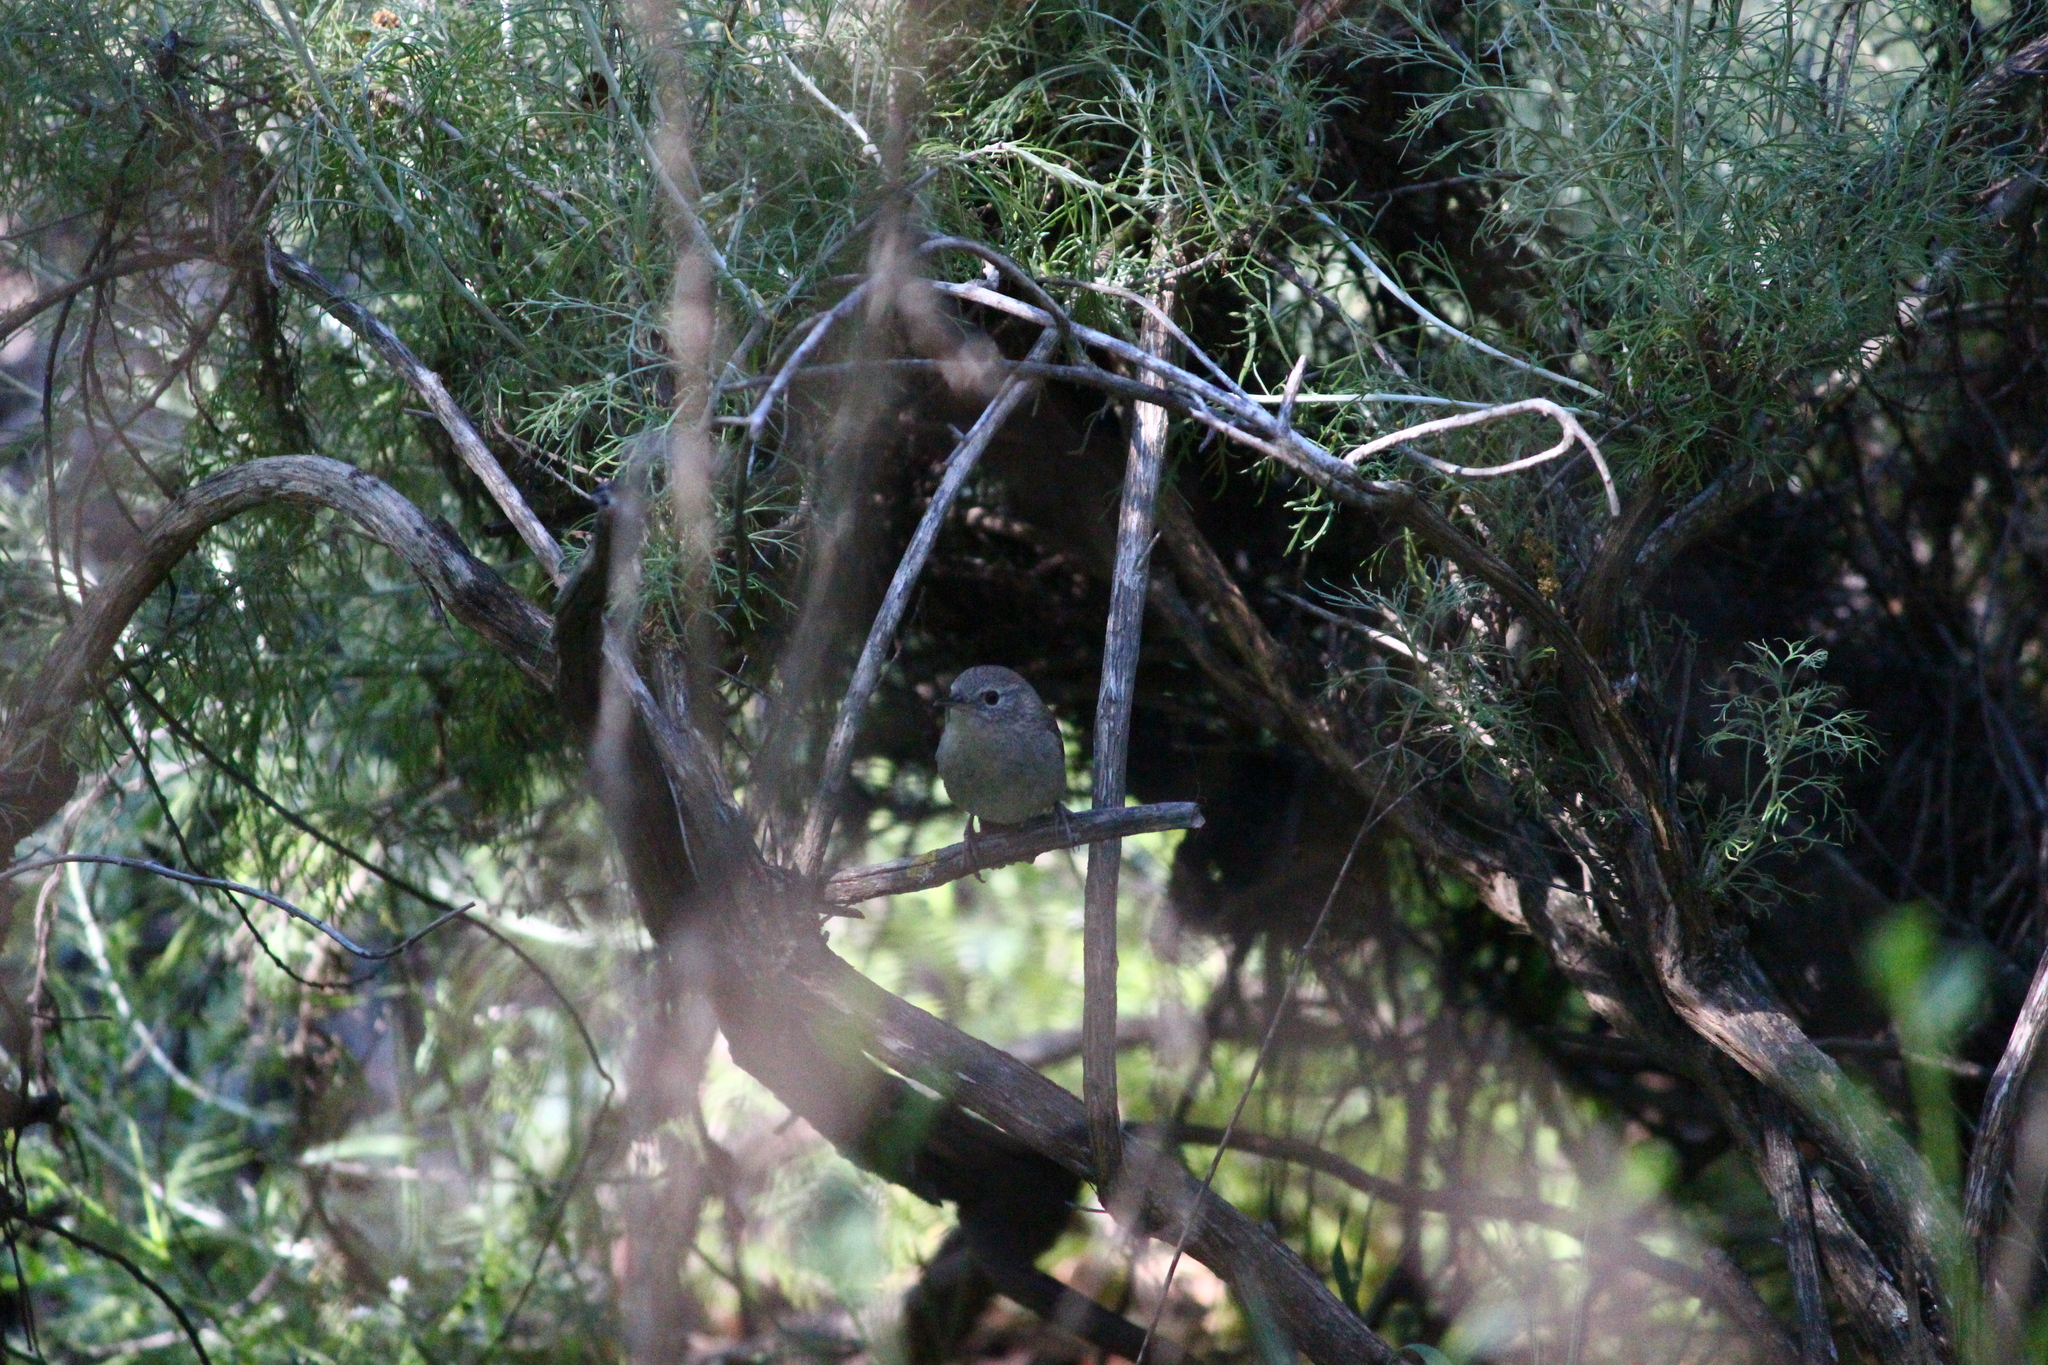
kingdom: Animalia
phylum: Chordata
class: Aves
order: Passeriformes
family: Troglodytidae
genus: Troglodytes
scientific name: Troglodytes aedon
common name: House wren
